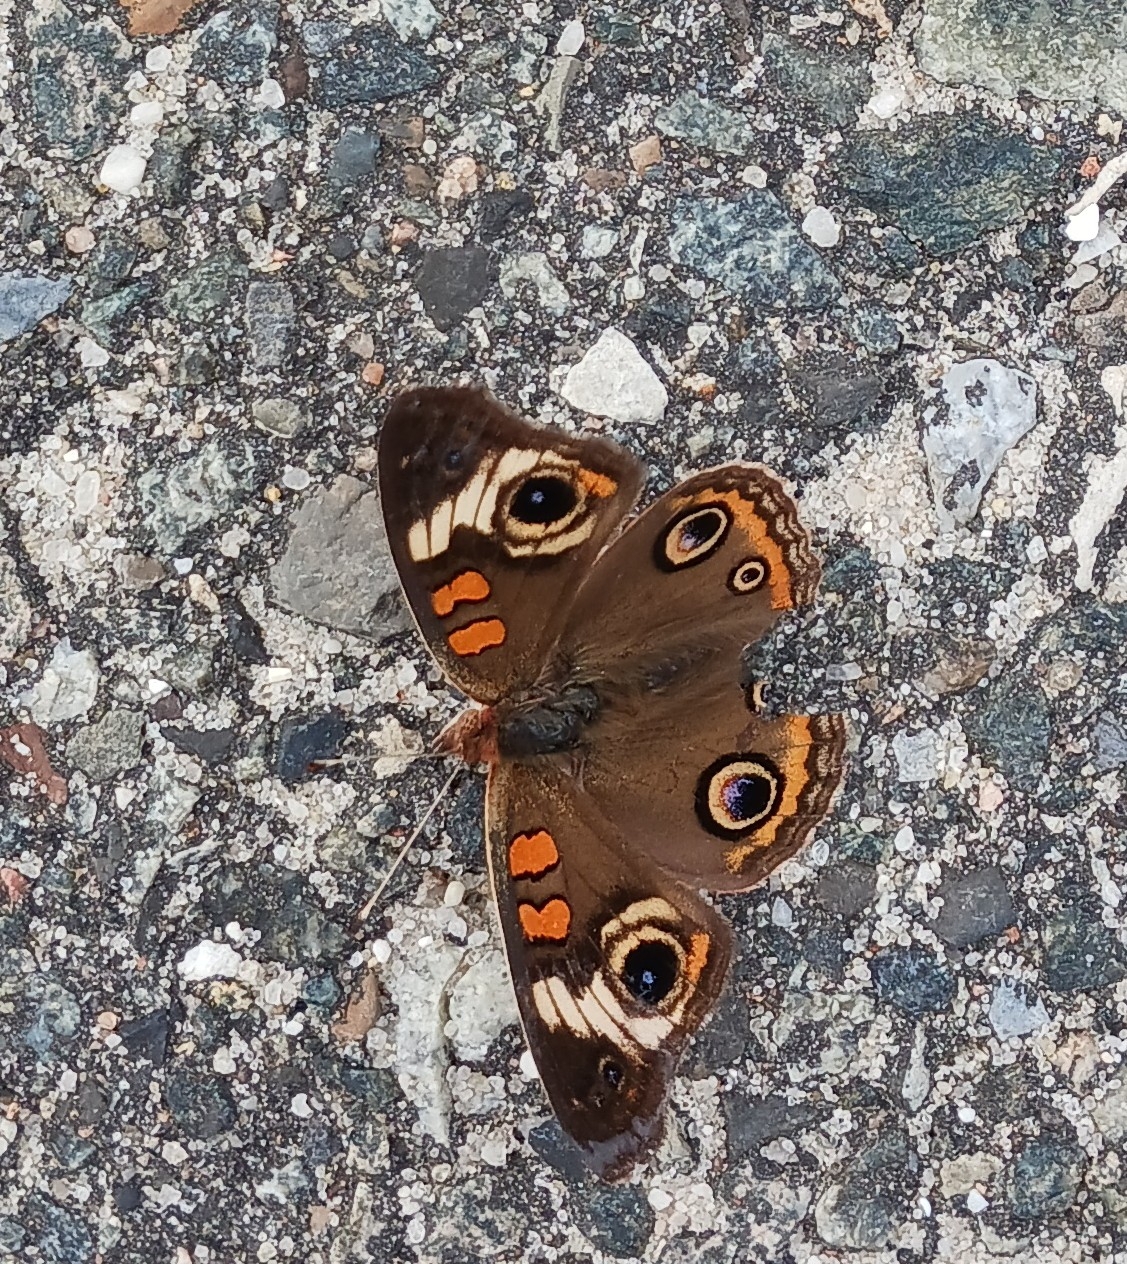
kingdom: Animalia
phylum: Arthropoda
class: Insecta
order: Lepidoptera
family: Nymphalidae
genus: Junonia
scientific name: Junonia coenia
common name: Common buckeye
